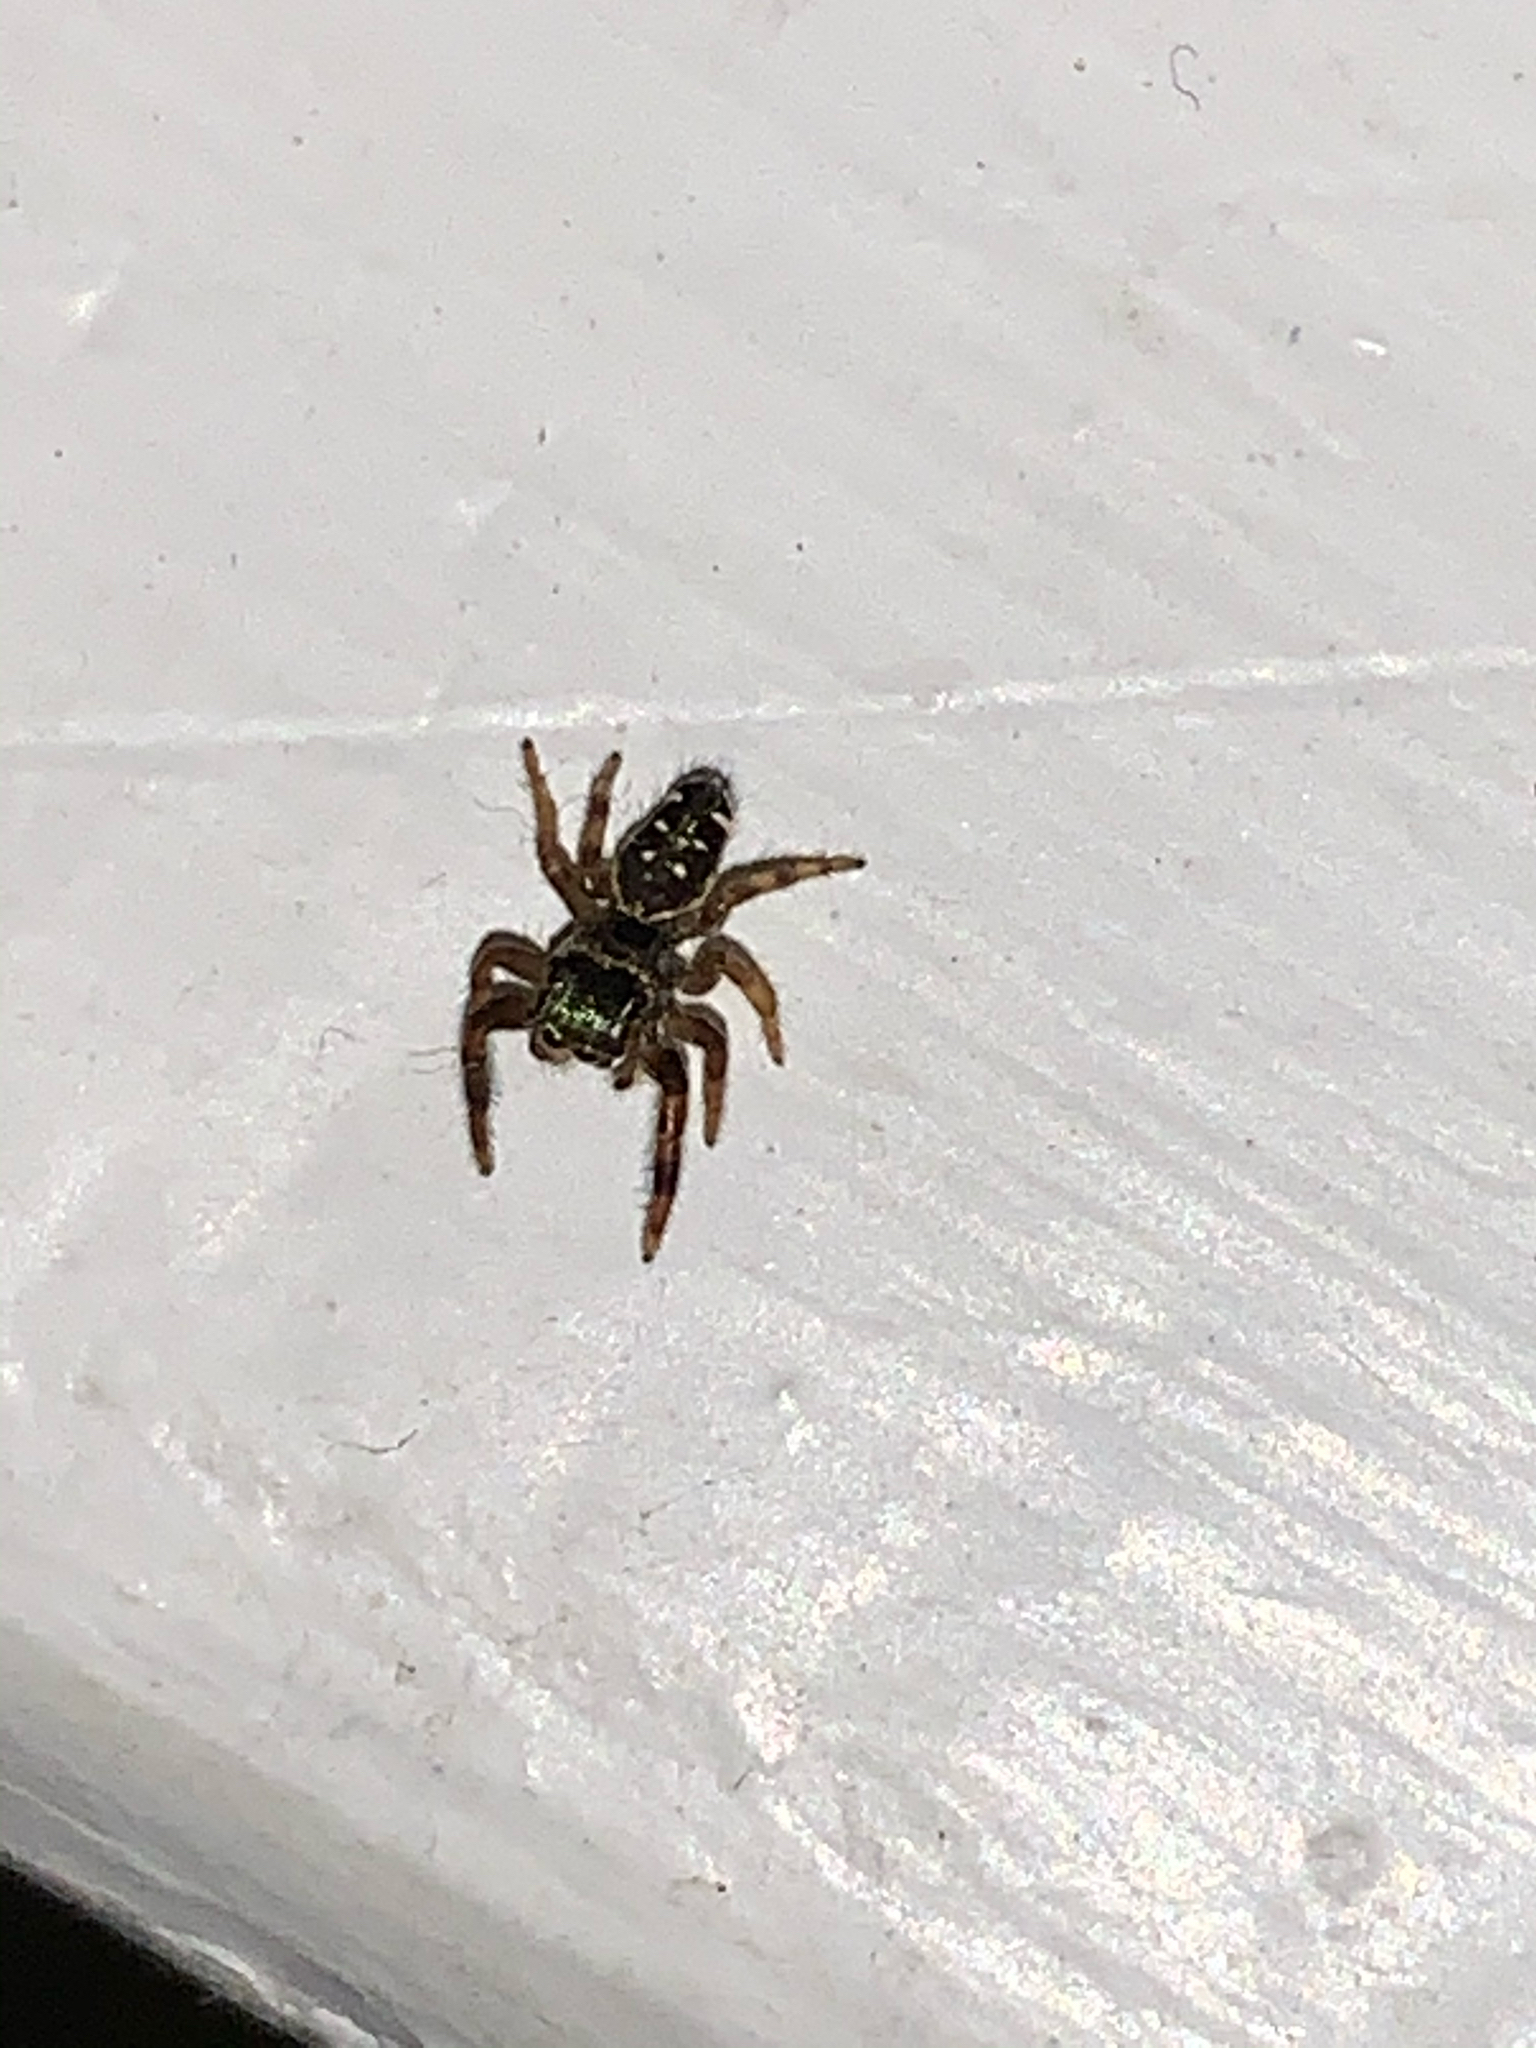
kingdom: Animalia
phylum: Arthropoda
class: Arachnida
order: Araneae
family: Salticidae
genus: Paraphidippus
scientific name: Paraphidippus aurantius
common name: Jumping spiders
